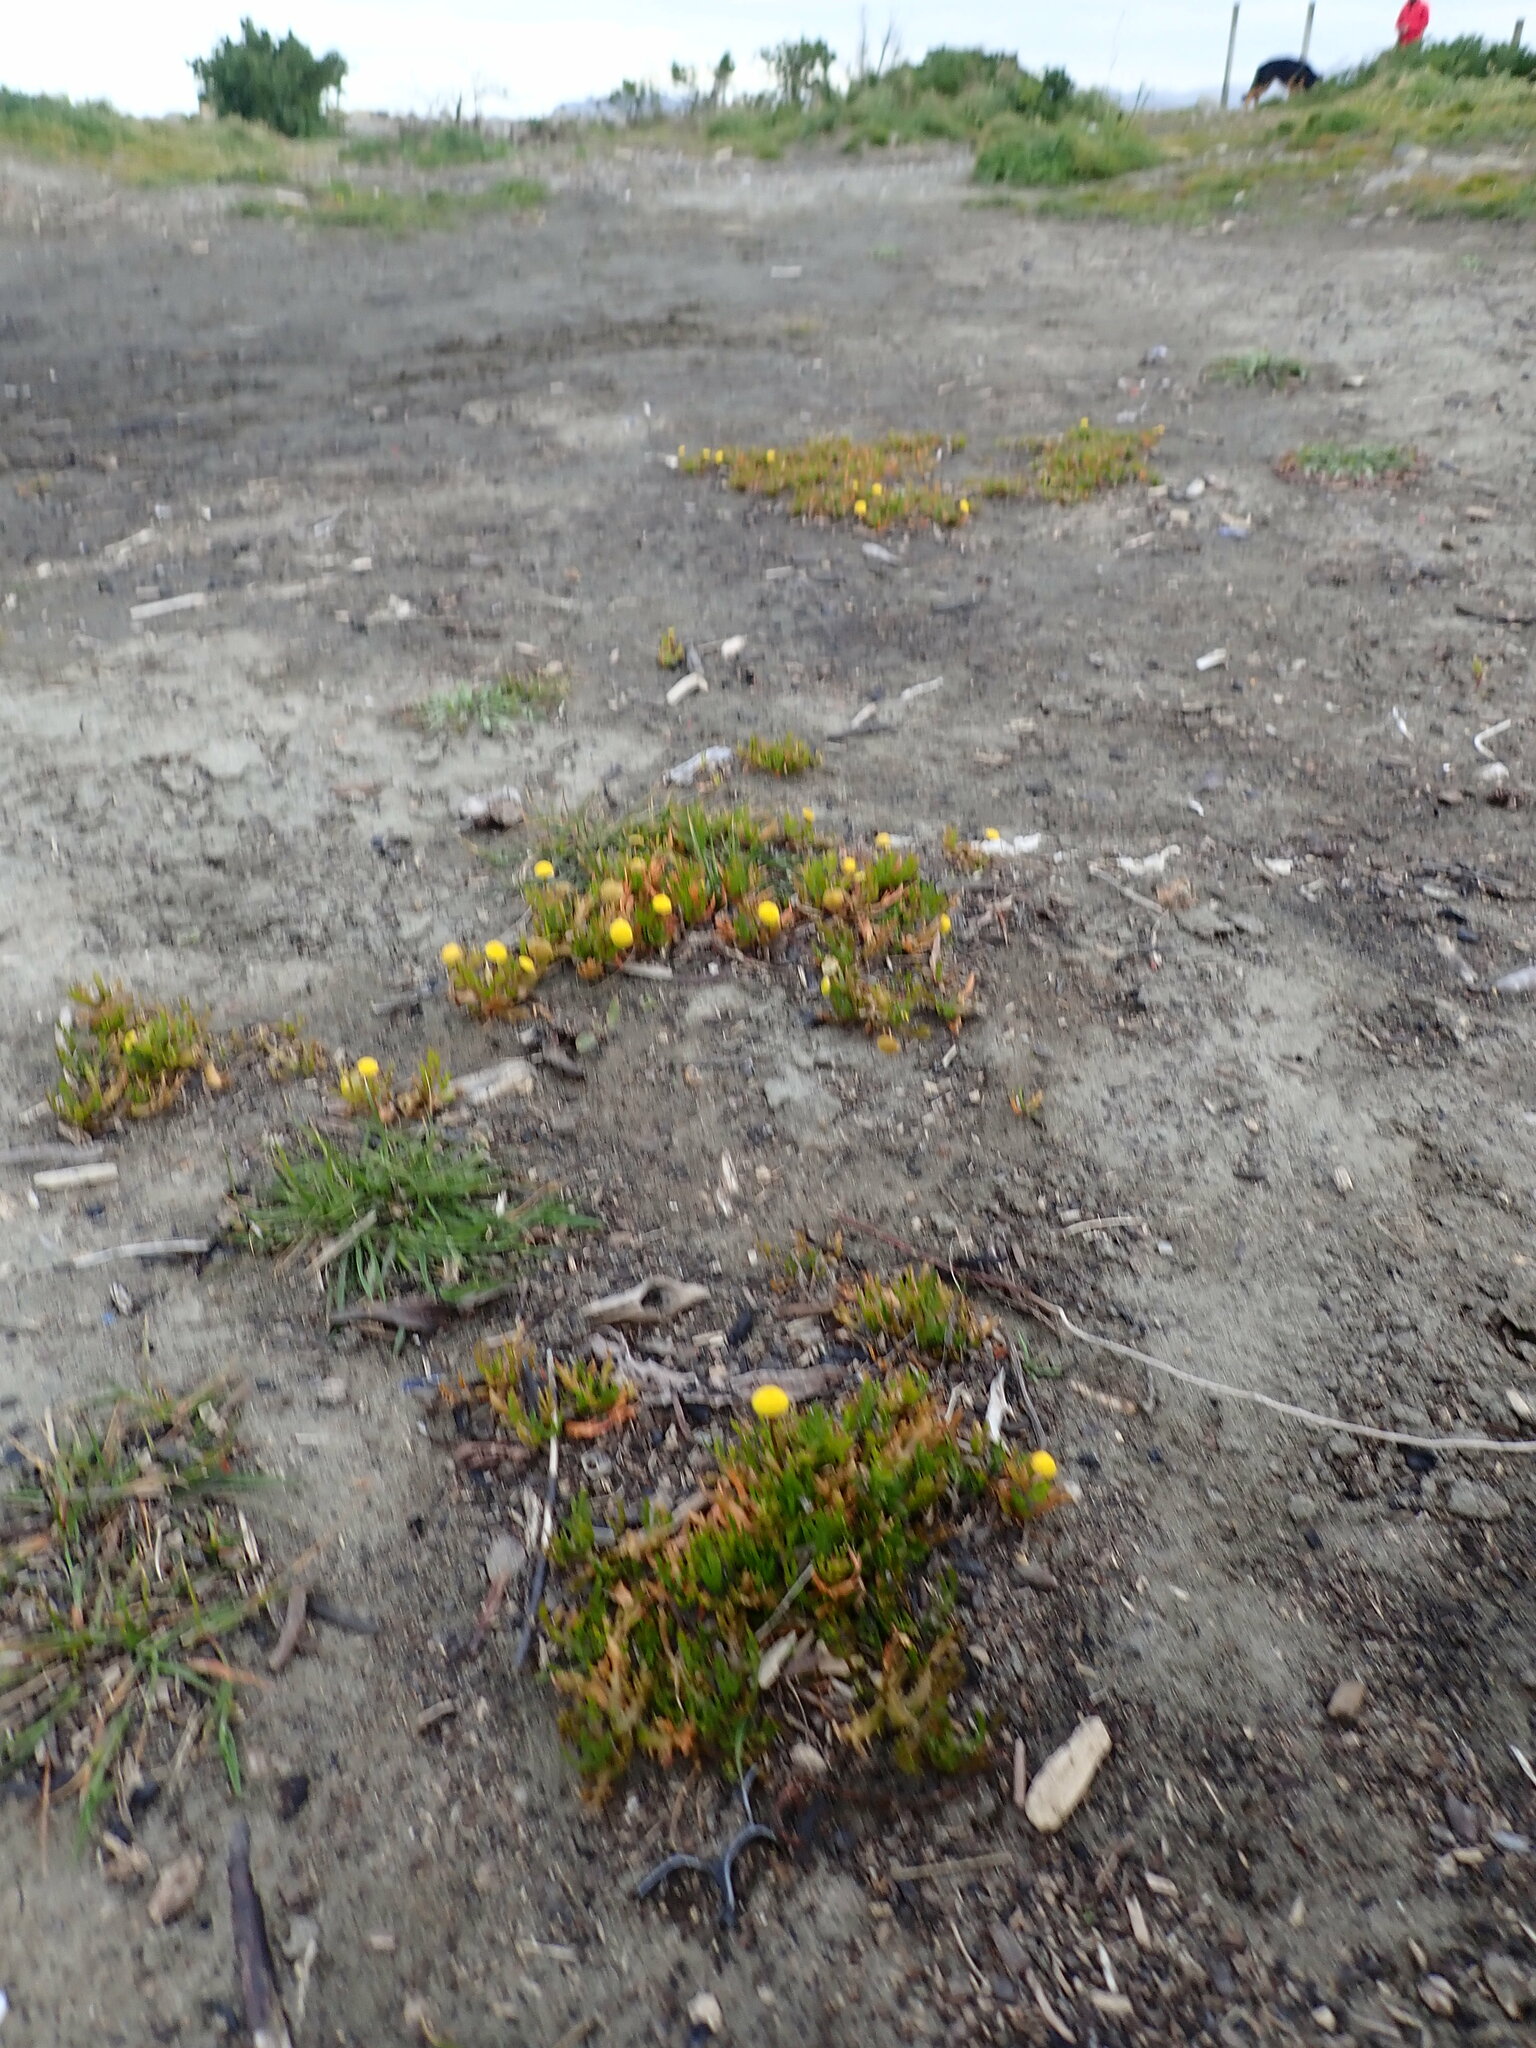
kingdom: Plantae
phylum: Tracheophyta
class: Magnoliopsida
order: Asterales
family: Asteraceae
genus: Cotula
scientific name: Cotula coronopifolia
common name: Buttonweed
